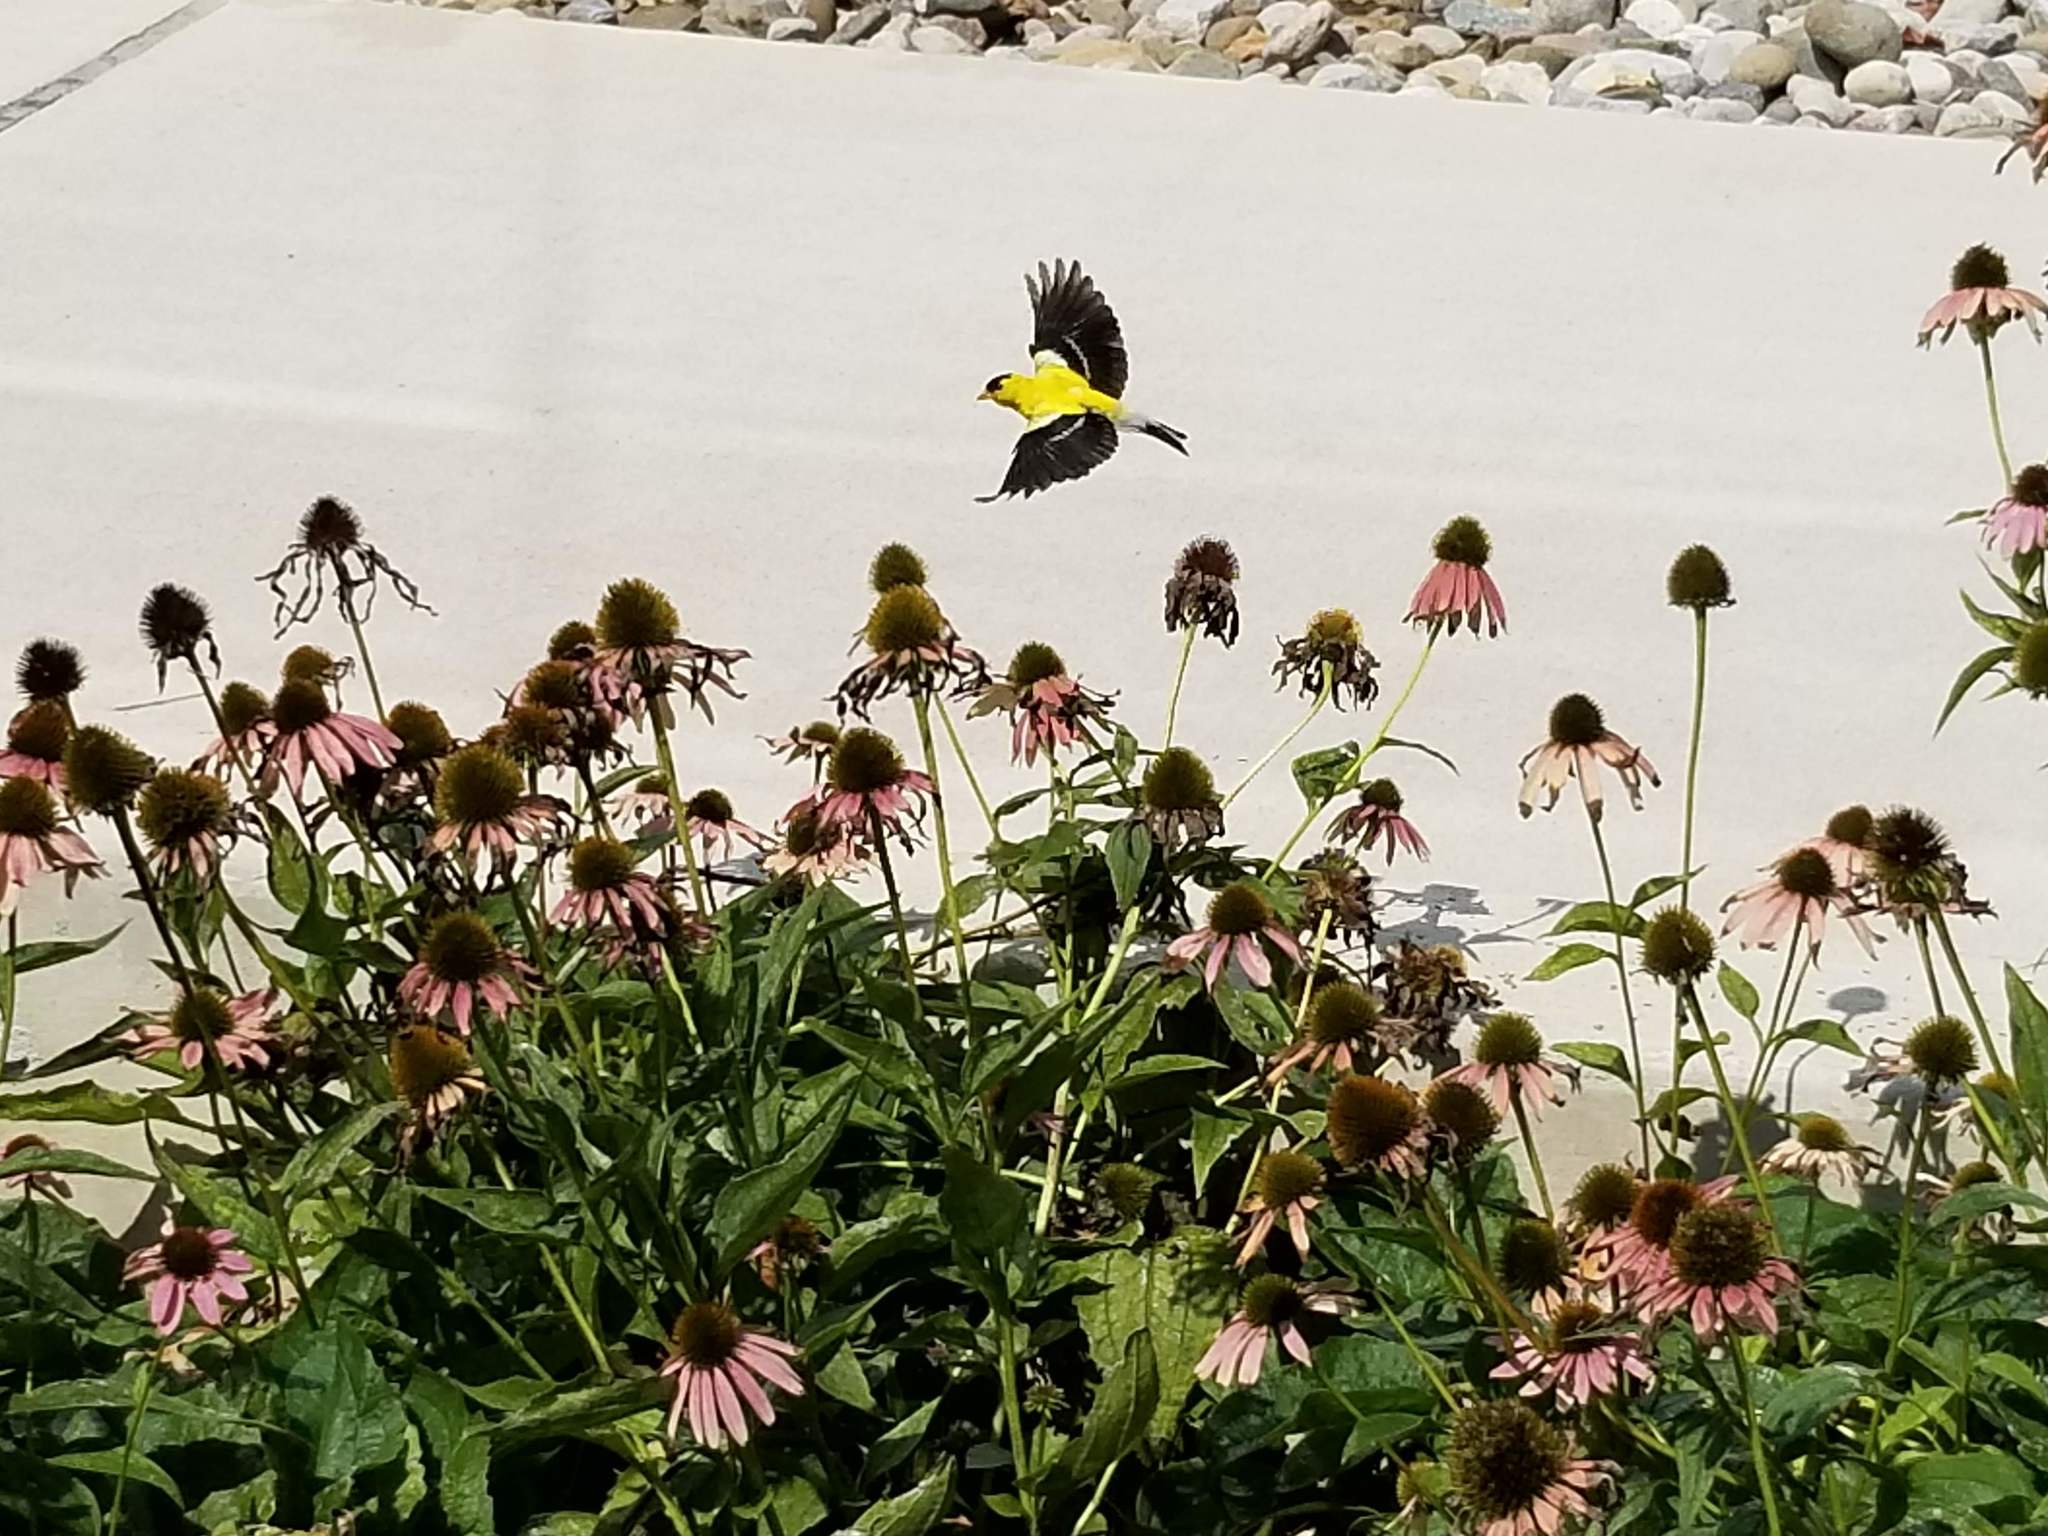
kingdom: Animalia
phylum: Chordata
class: Aves
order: Passeriformes
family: Fringillidae
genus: Spinus
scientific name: Spinus tristis
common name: American goldfinch
